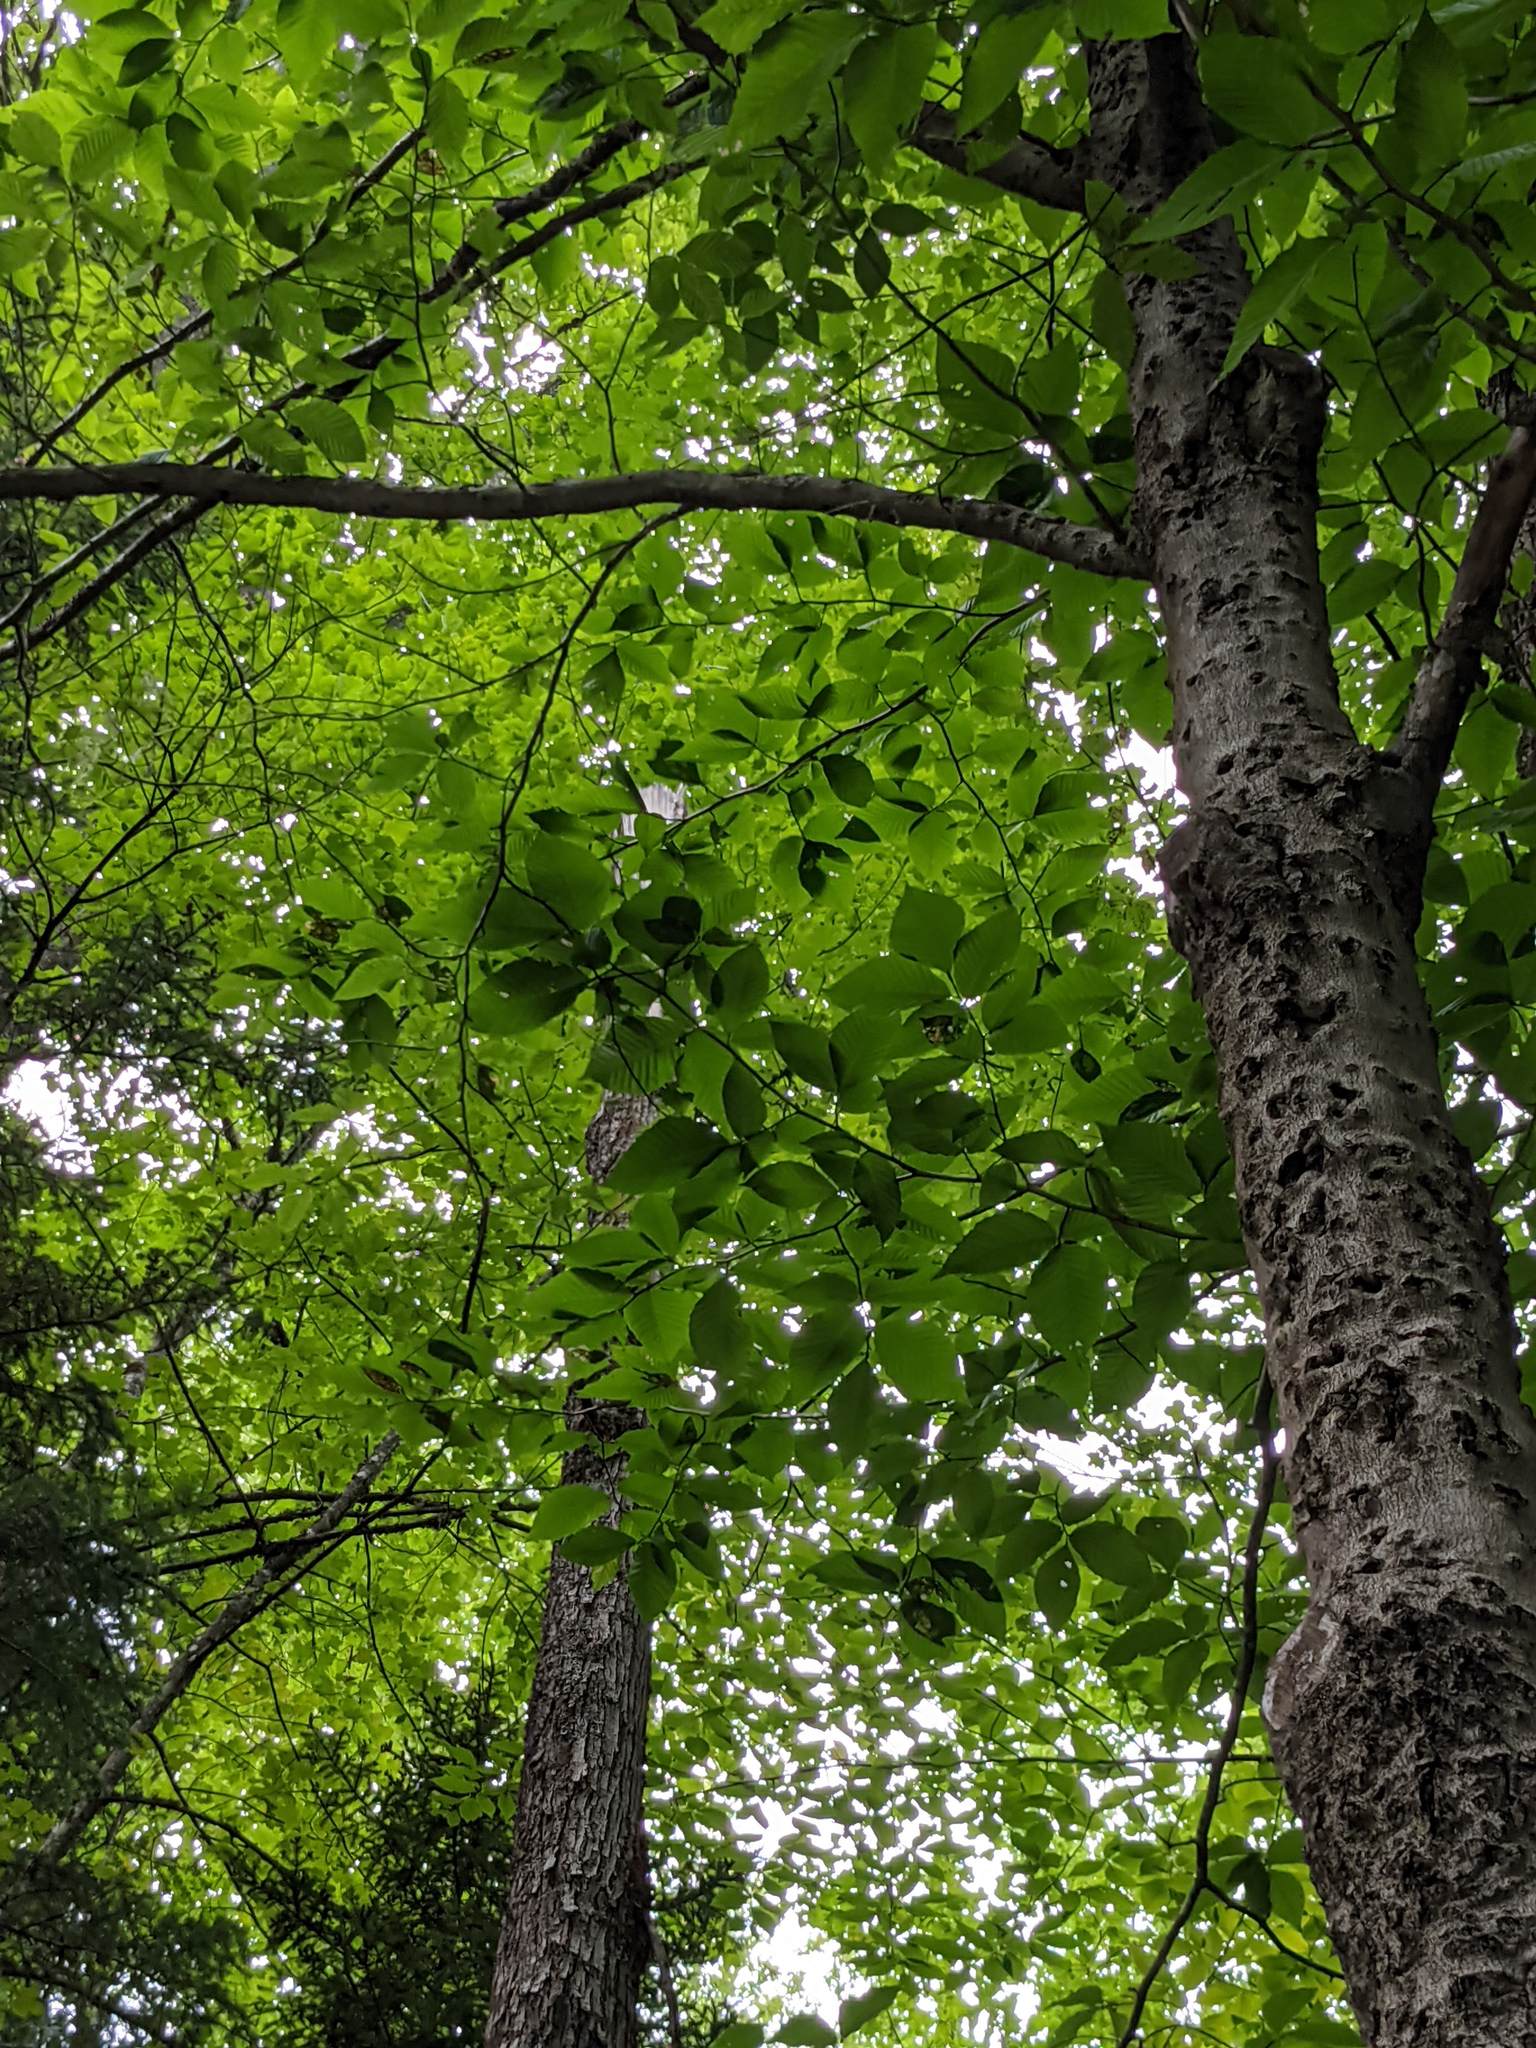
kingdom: Plantae
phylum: Tracheophyta
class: Magnoliopsida
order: Fagales
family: Fagaceae
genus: Fagus
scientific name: Fagus grandifolia
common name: American beech
